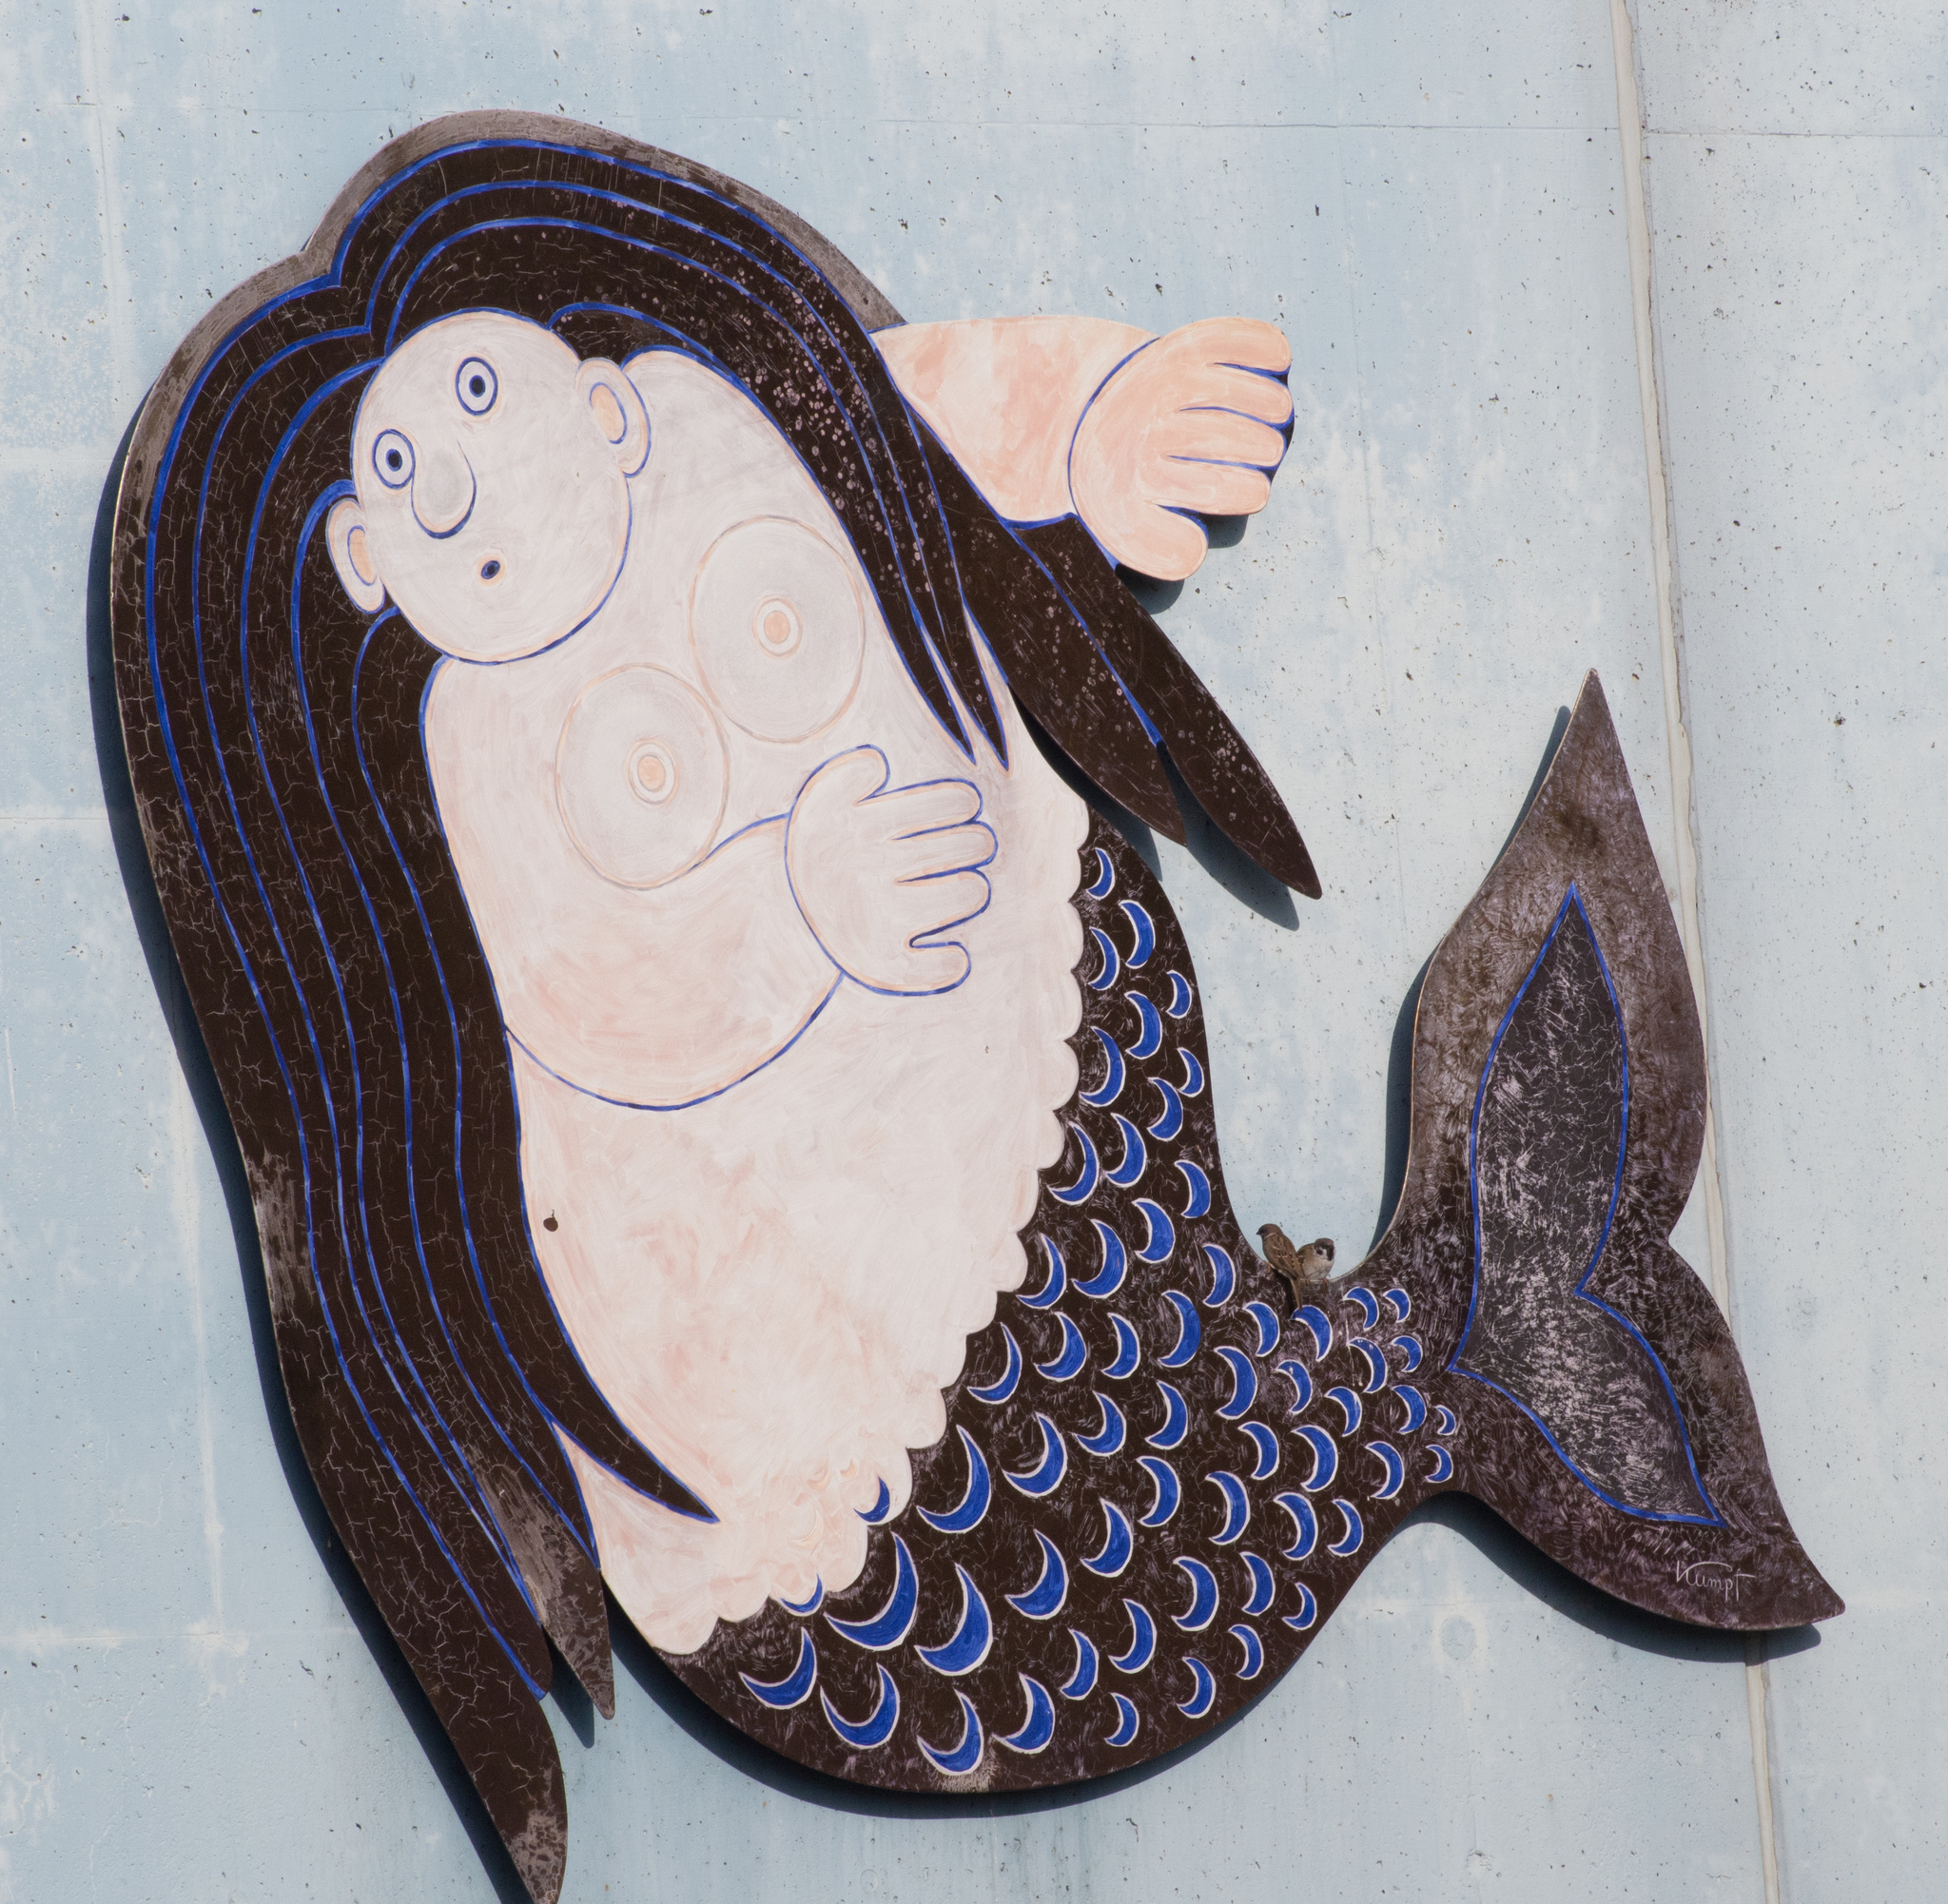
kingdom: Animalia
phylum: Chordata
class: Aves
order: Passeriformes
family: Passeridae
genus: Passer
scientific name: Passer montanus
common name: Eurasian tree sparrow
